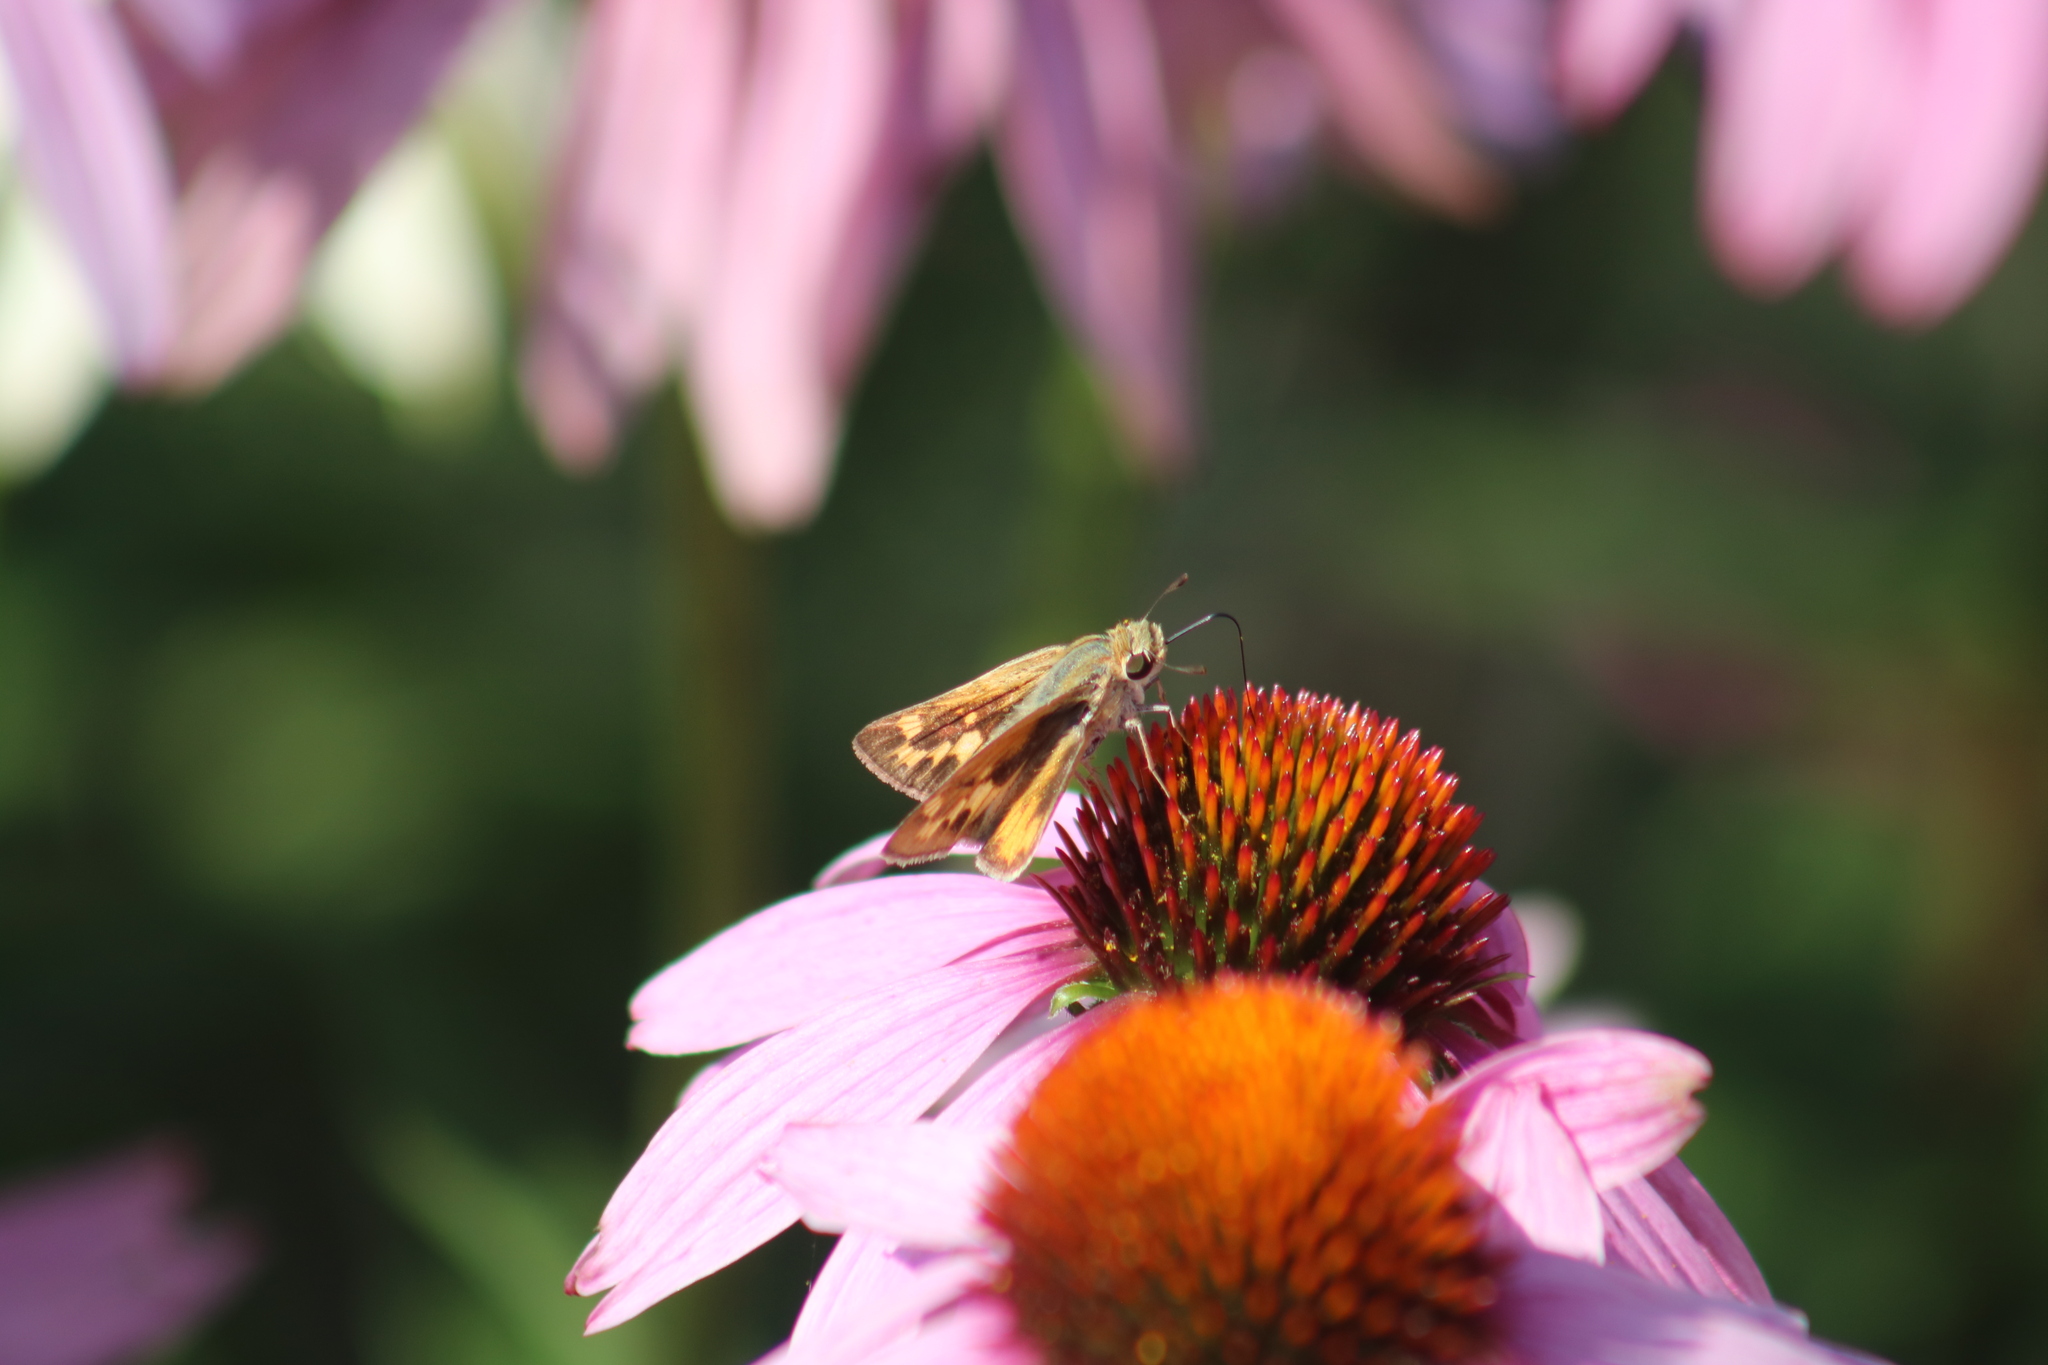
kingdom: Animalia
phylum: Arthropoda
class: Insecta
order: Lepidoptera
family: Hesperiidae
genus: Hylephila
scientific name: Hylephila phyleus
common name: Fiery skipper
